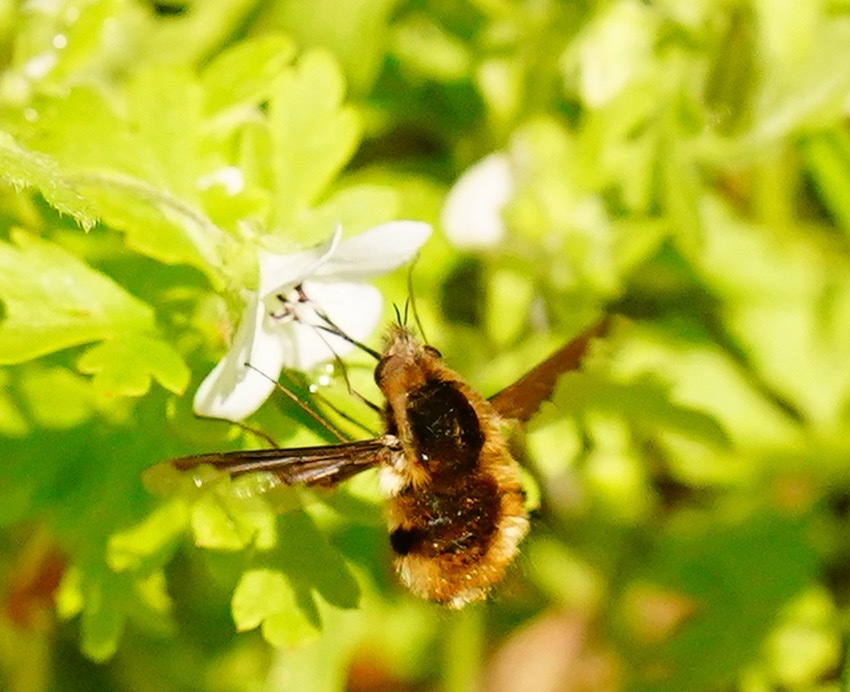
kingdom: Animalia
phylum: Arthropoda
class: Insecta
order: Diptera
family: Bombyliidae
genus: Bombylius
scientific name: Bombylius major
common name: Bee fly
